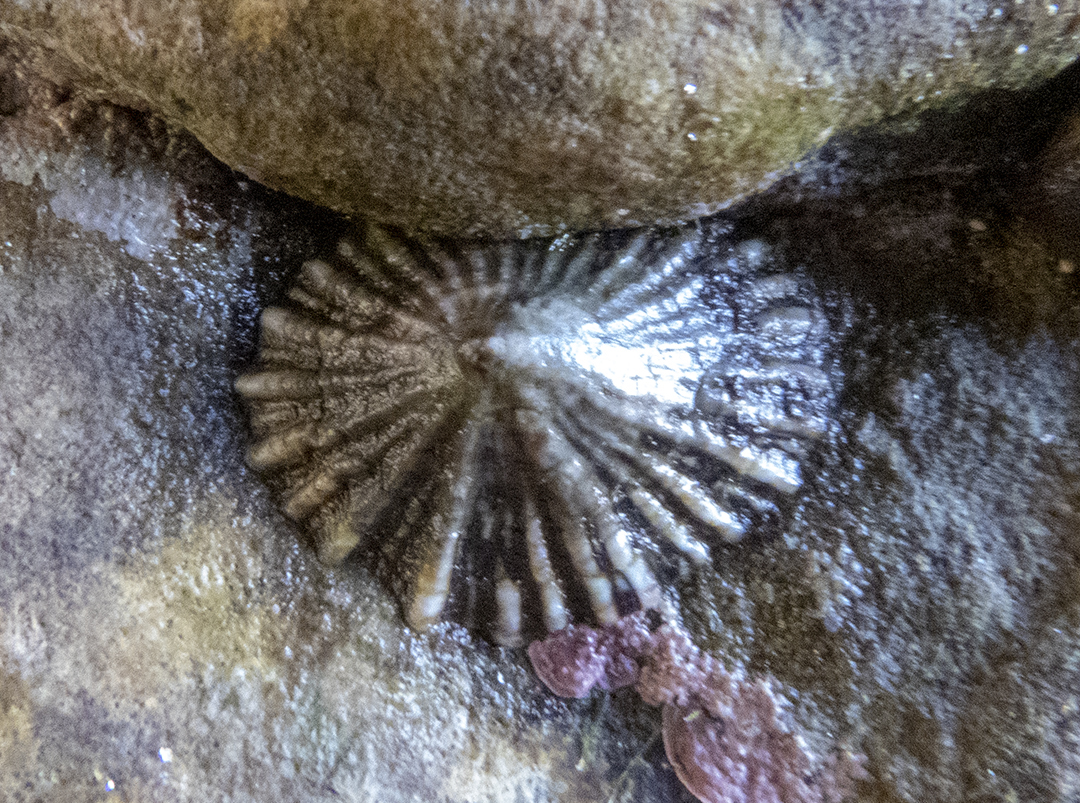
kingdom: Animalia
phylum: Mollusca
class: Gastropoda
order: Siphonariida
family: Siphonariidae
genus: Siphonaria
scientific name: Siphonaria australis
